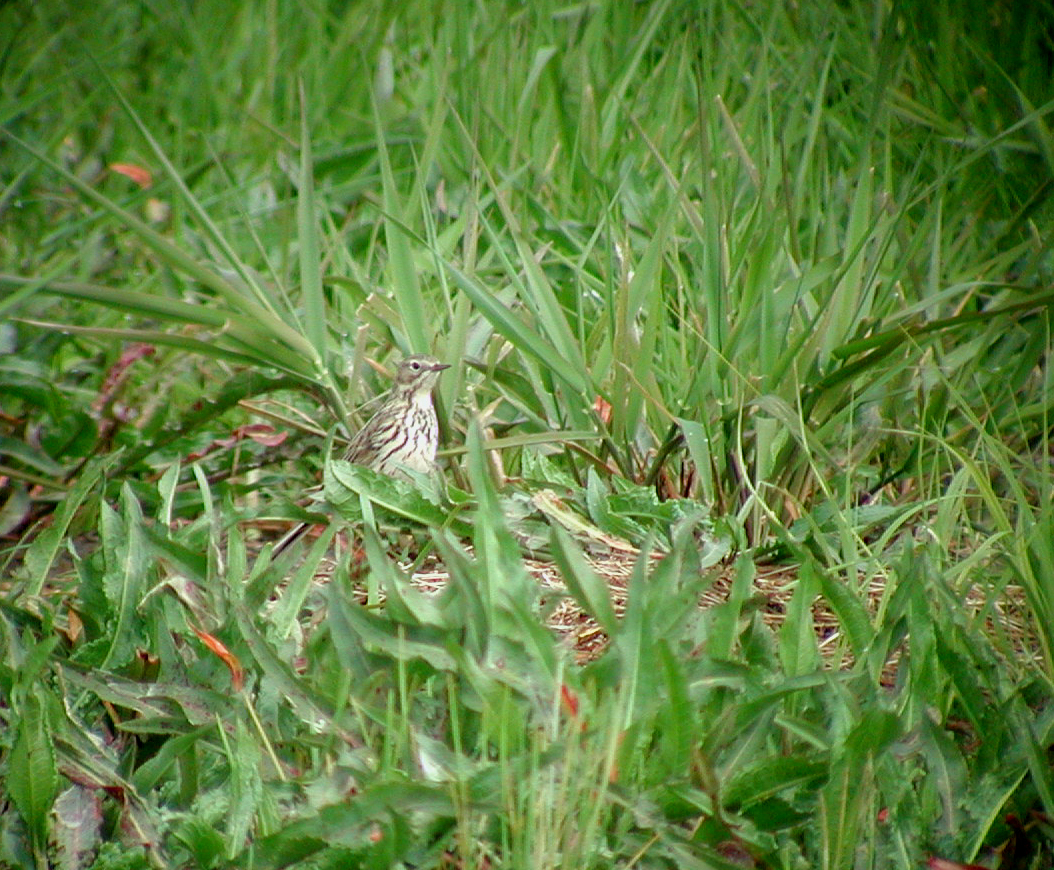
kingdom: Animalia
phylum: Chordata
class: Aves
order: Passeriformes
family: Motacillidae
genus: Anthus
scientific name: Anthus pratensis
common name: Meadow pipit
